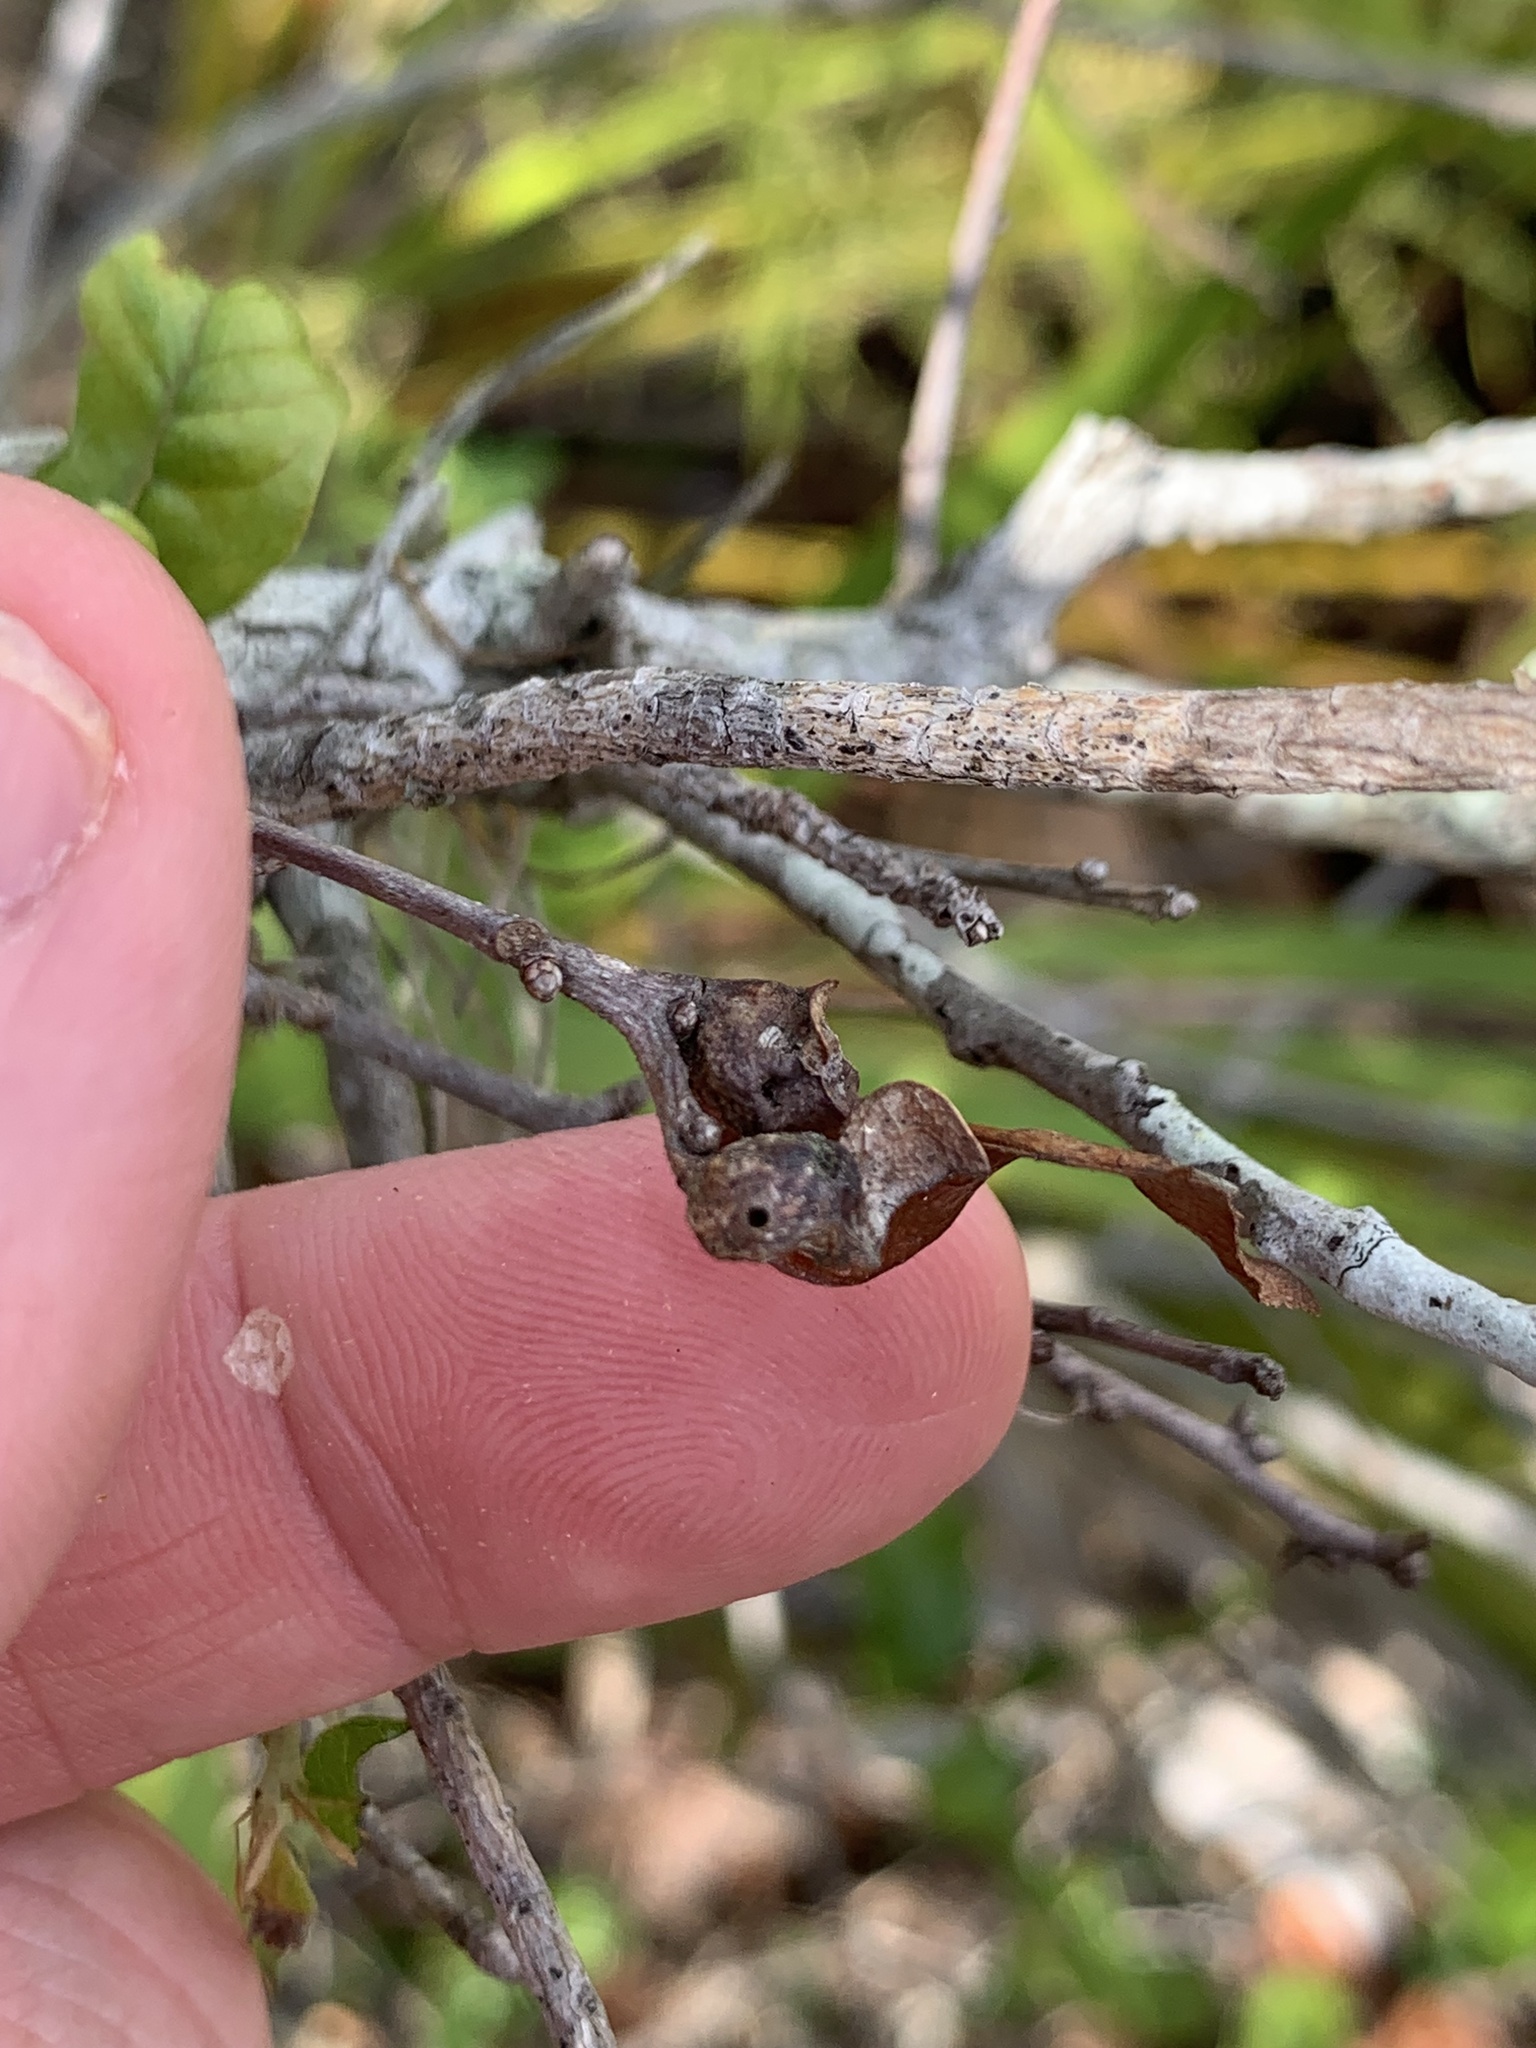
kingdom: Animalia
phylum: Arthropoda
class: Insecta
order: Hymenoptera
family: Cynipidae
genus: Andricus
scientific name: Andricus
